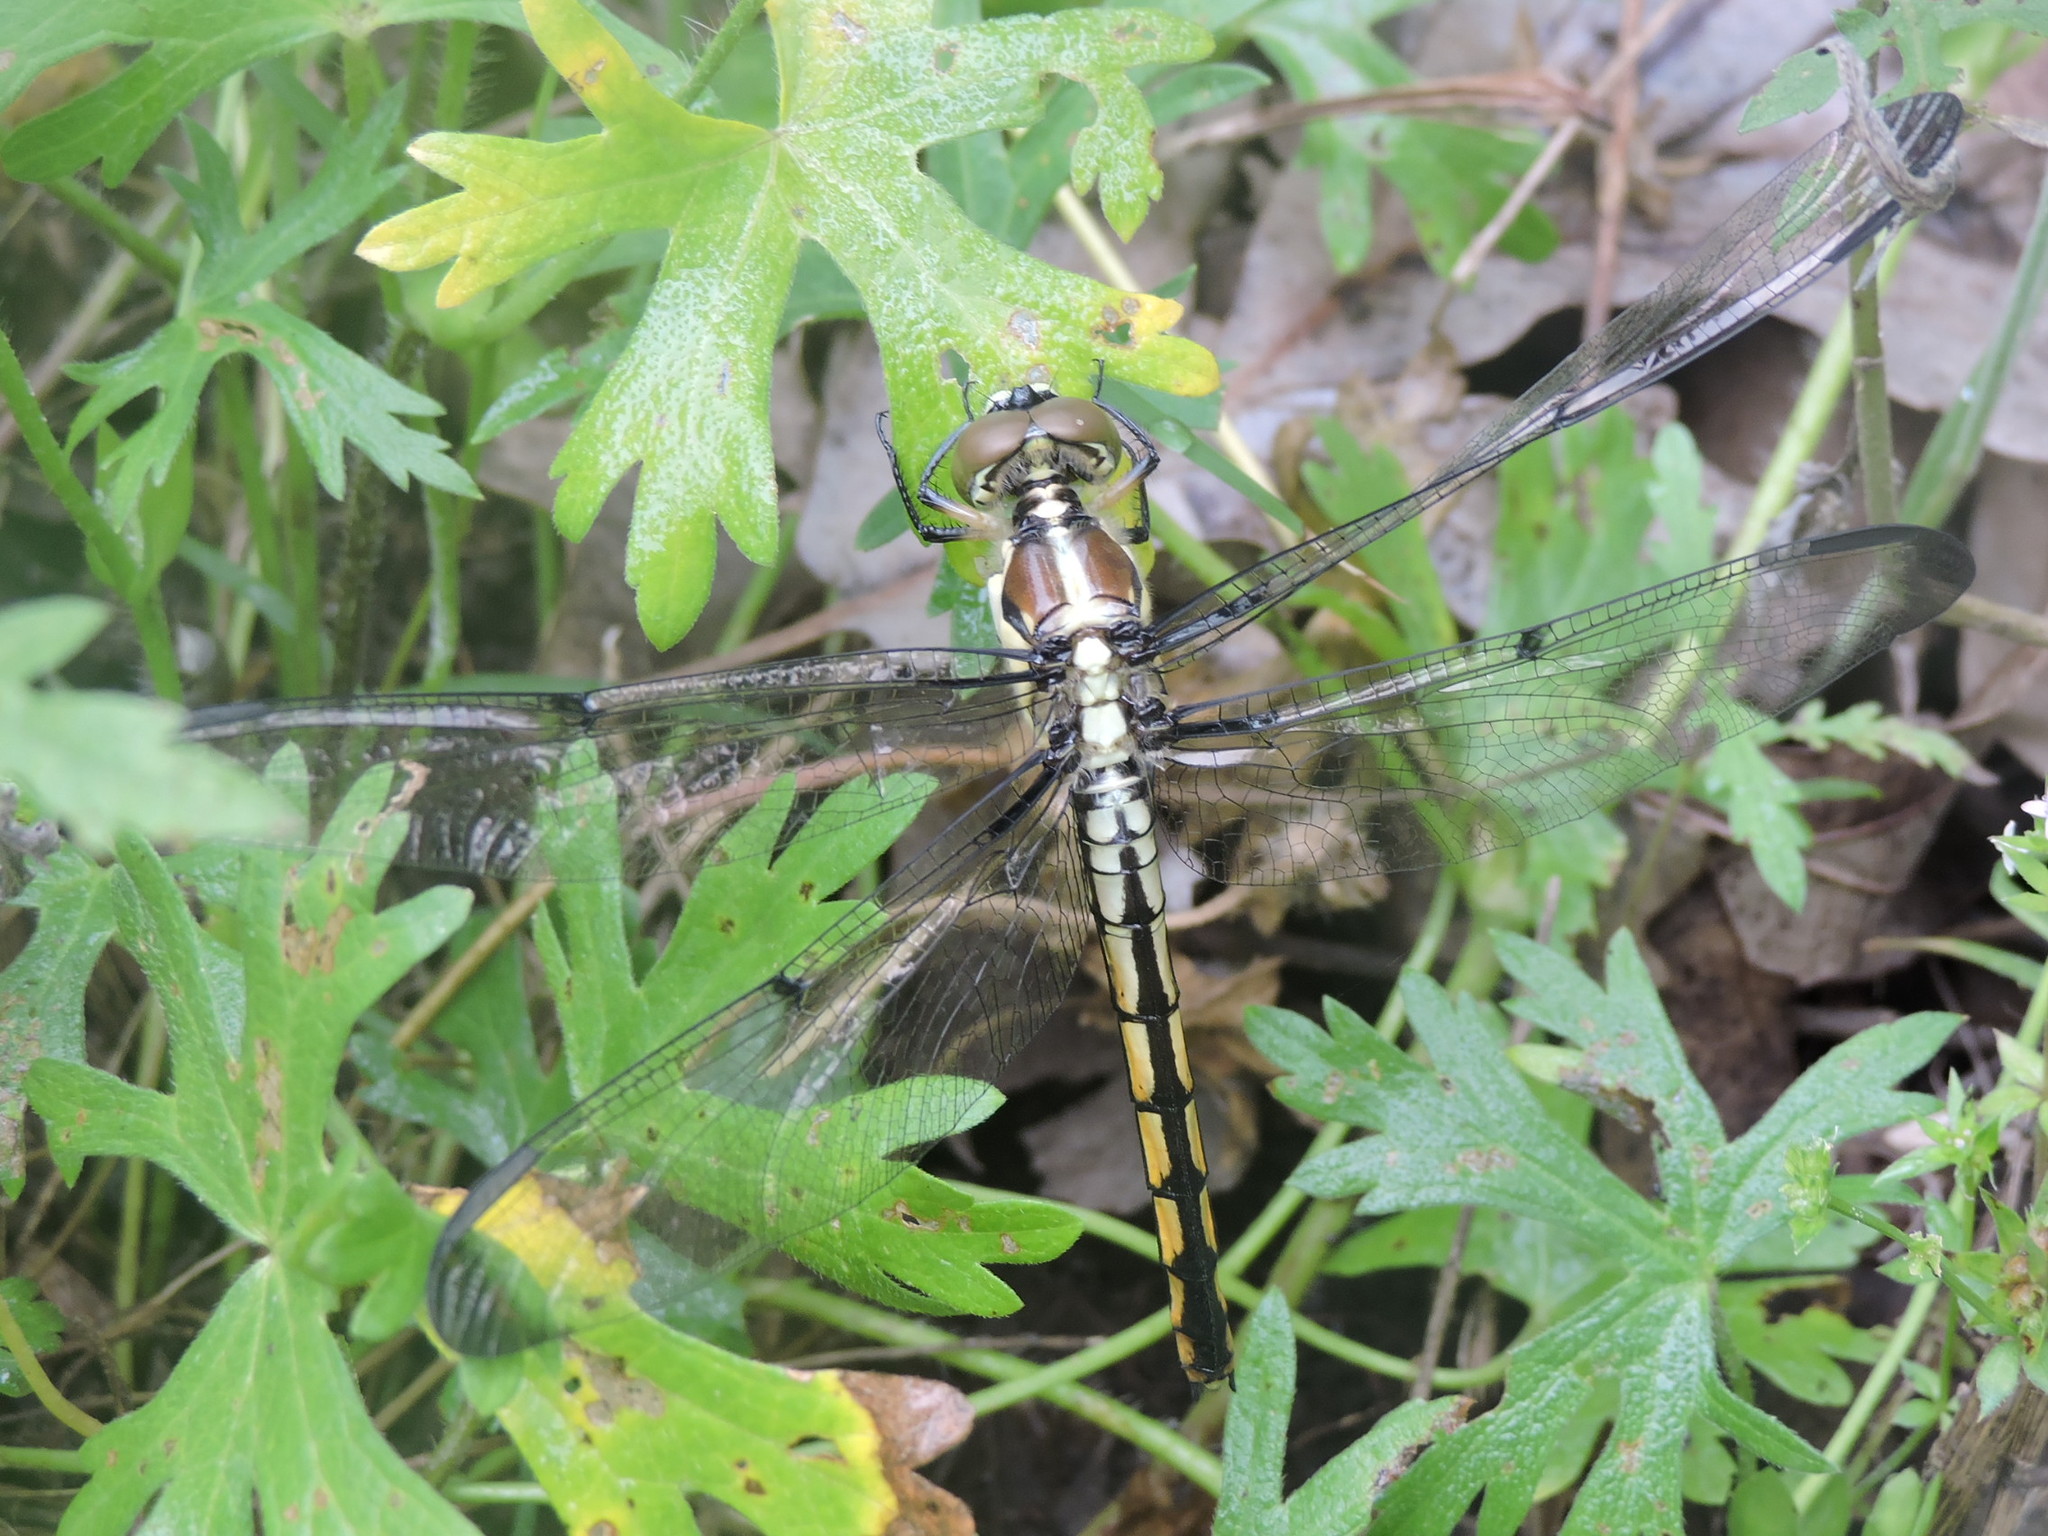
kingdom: Animalia
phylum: Arthropoda
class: Insecta
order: Odonata
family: Libellulidae
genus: Libellula
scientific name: Libellula vibrans
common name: Great blue skimmer
